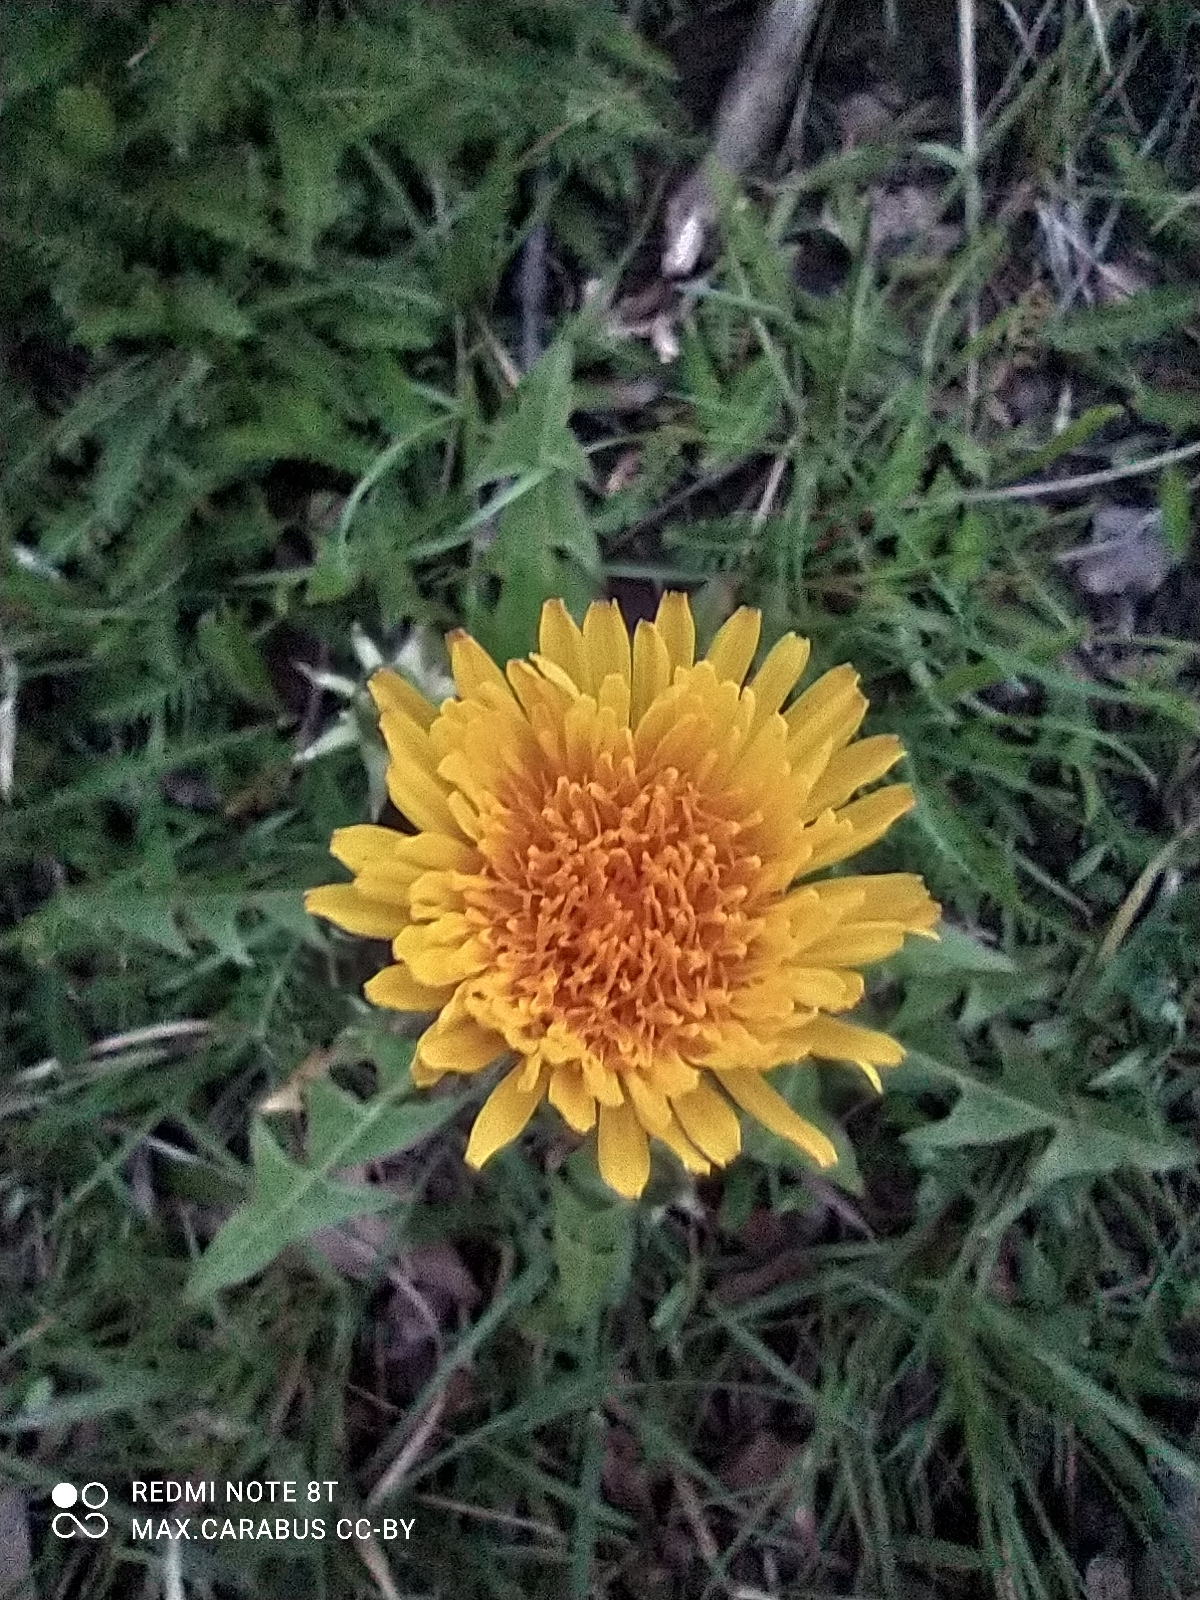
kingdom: Plantae
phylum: Tracheophyta
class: Magnoliopsida
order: Asterales
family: Asteraceae
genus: Taraxacum
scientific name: Taraxacum officinale
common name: Common dandelion
